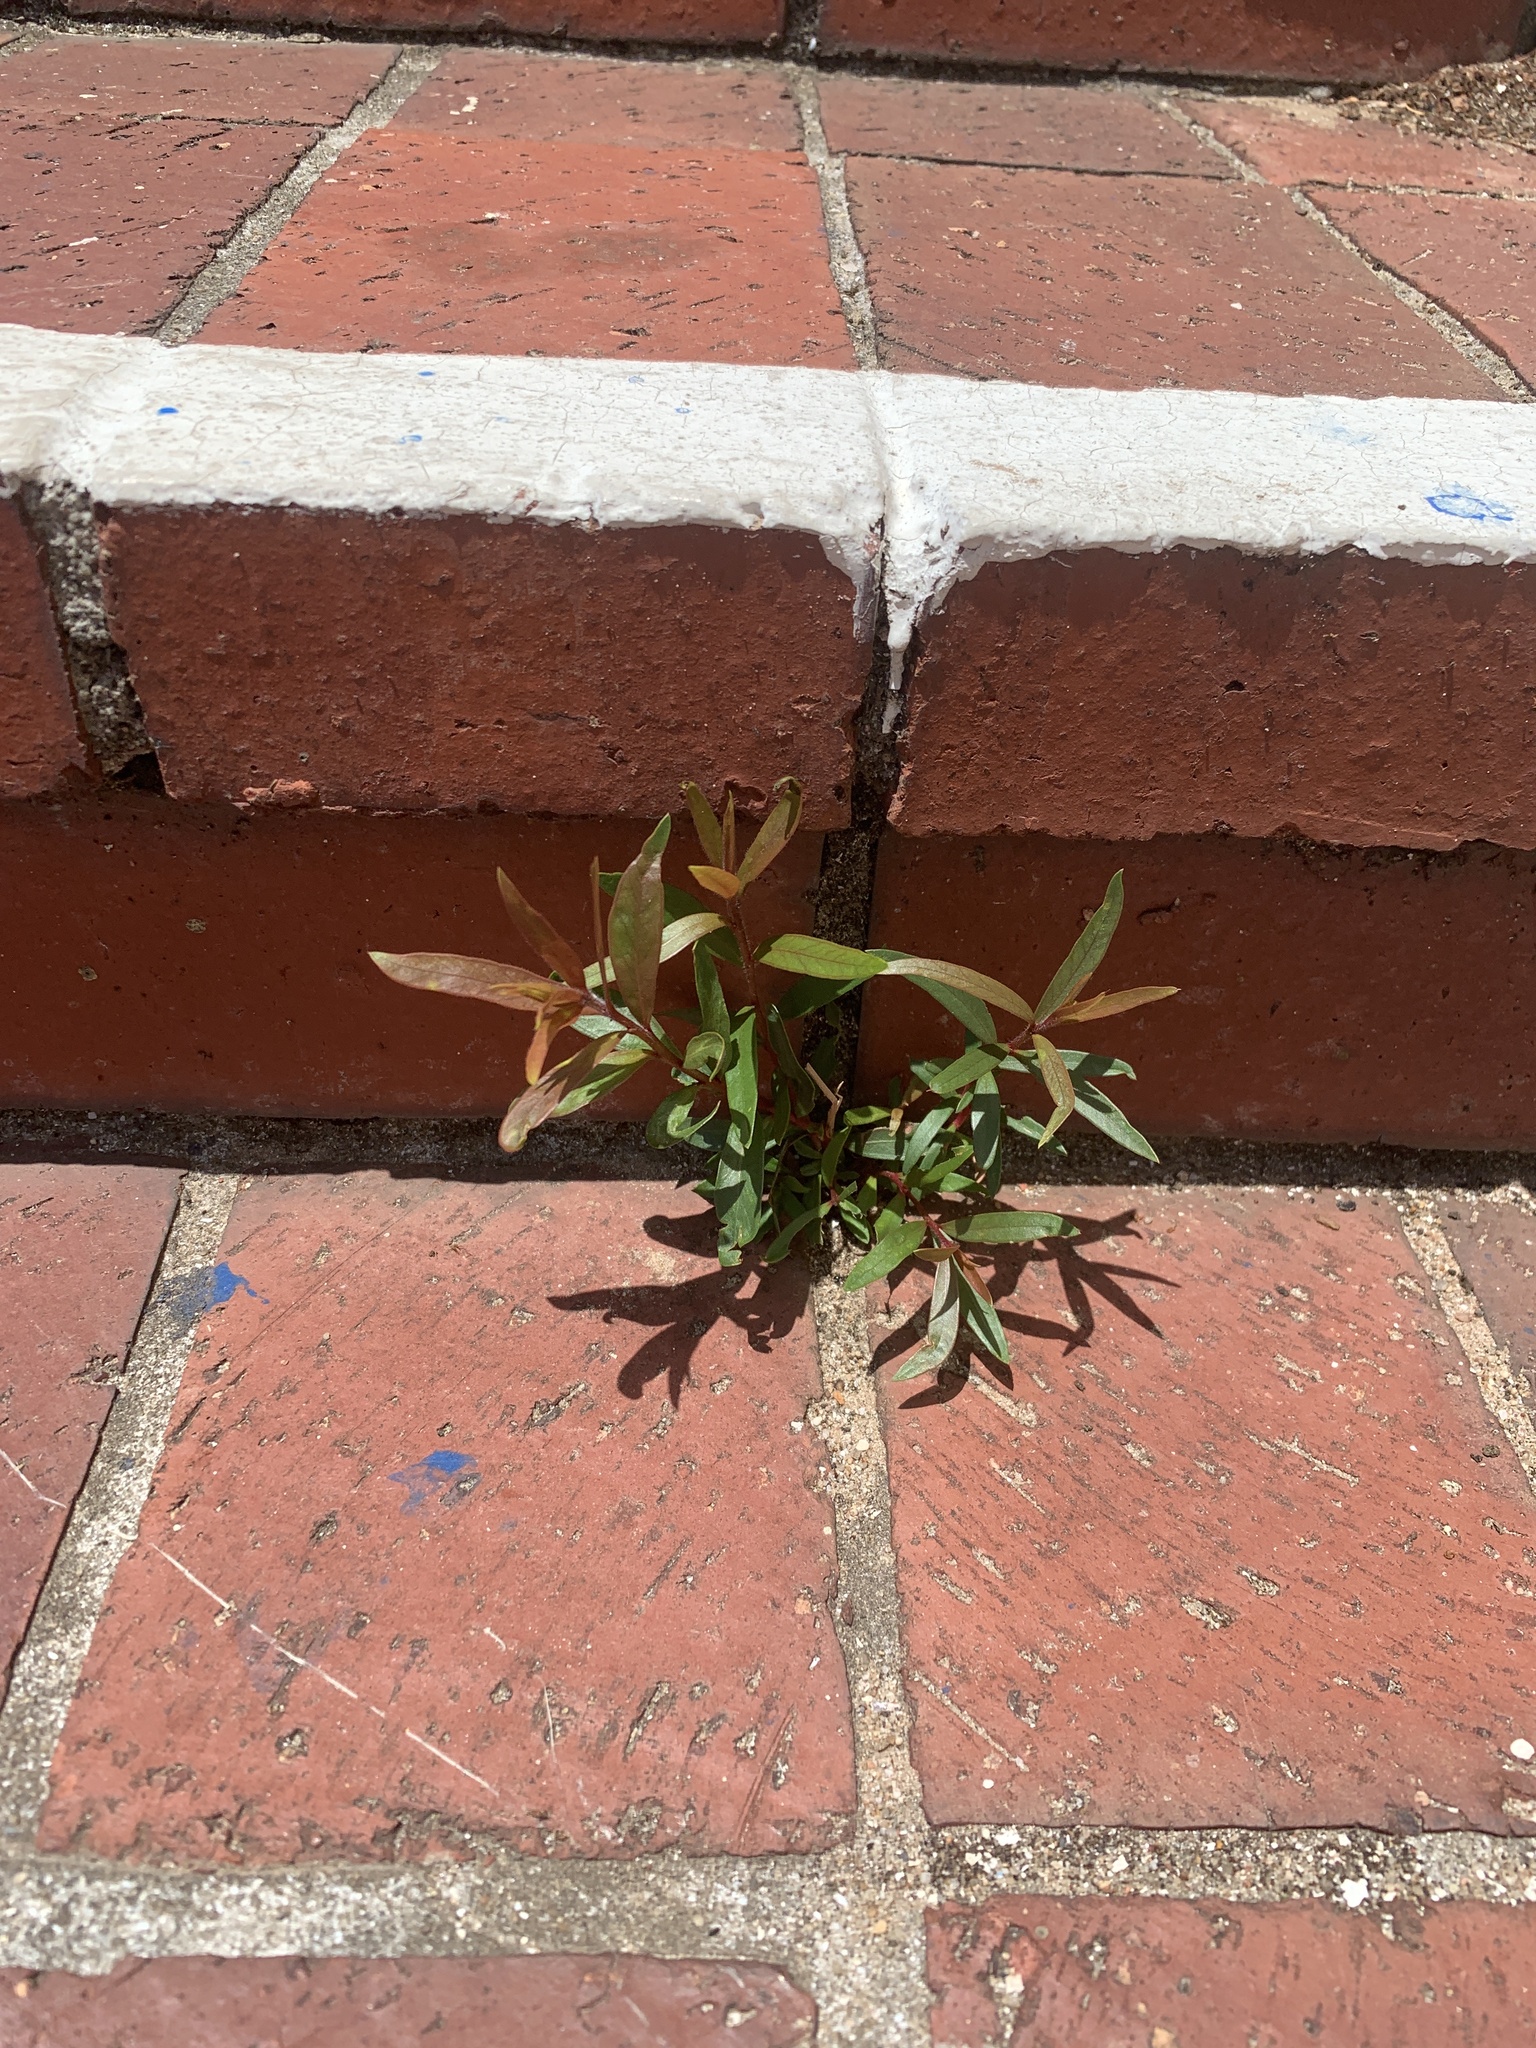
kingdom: Plantae
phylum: Tracheophyta
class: Magnoliopsida
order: Myrtales
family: Myrtaceae
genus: Callistemon
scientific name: Callistemon viminalis
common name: Drooping bottlebrush
